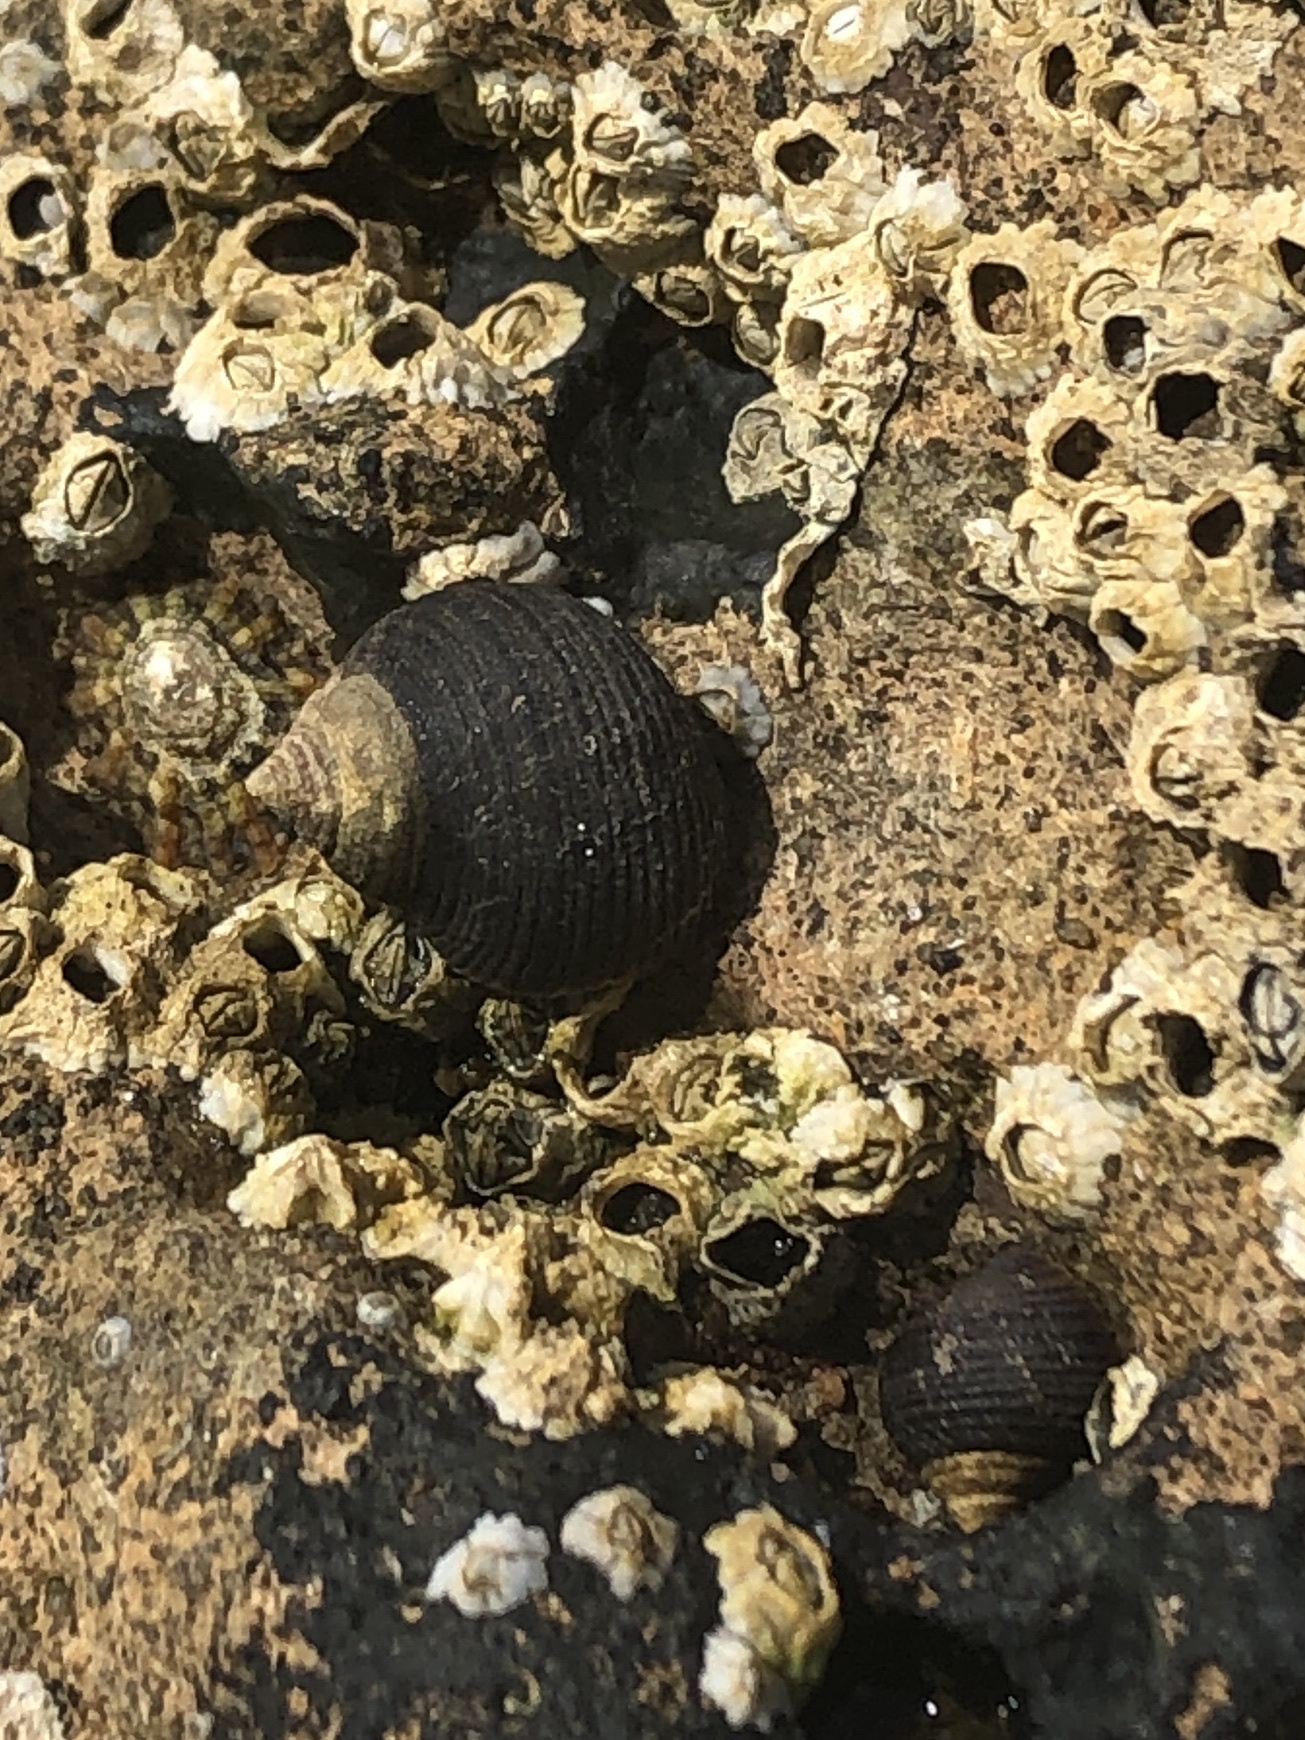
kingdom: Animalia
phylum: Mollusca
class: Gastropoda
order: Littorinimorpha
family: Littorinidae
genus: Littorina
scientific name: Littorina littorea
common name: Common periwinkle
